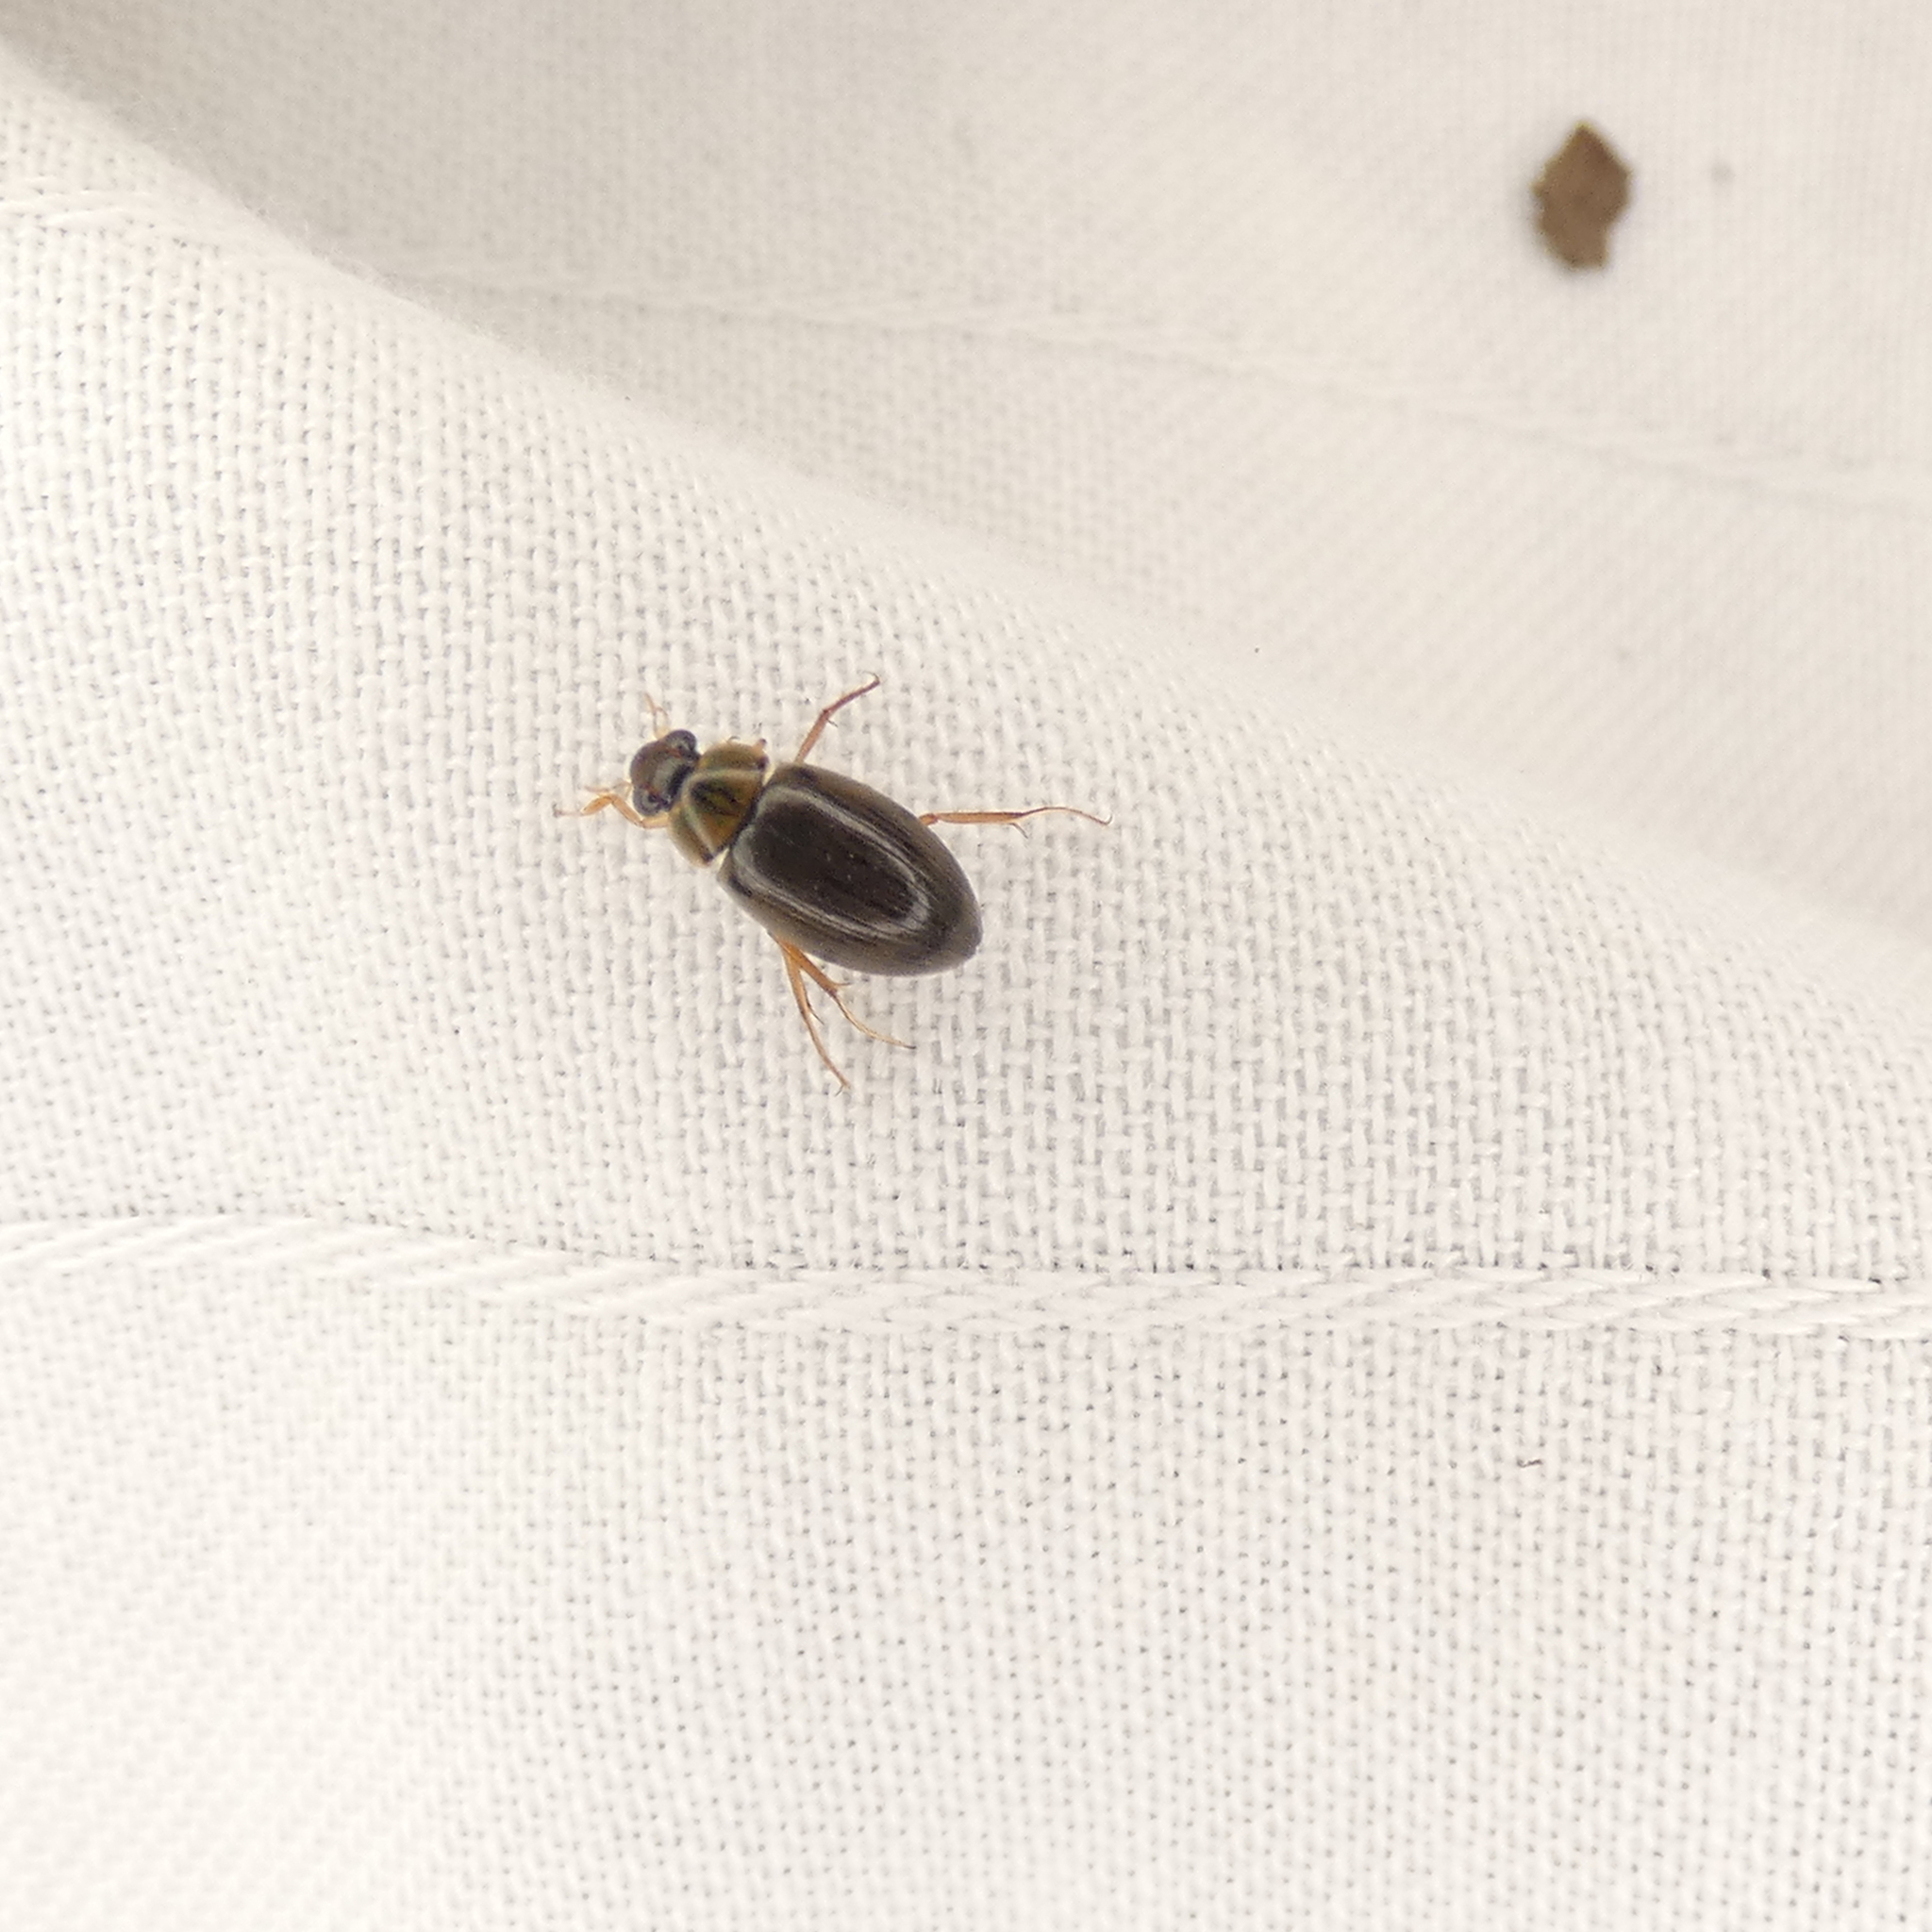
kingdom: Animalia
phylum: Arthropoda
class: Insecta
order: Coleoptera
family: Hydrophilidae
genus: Berosus
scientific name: Berosus
